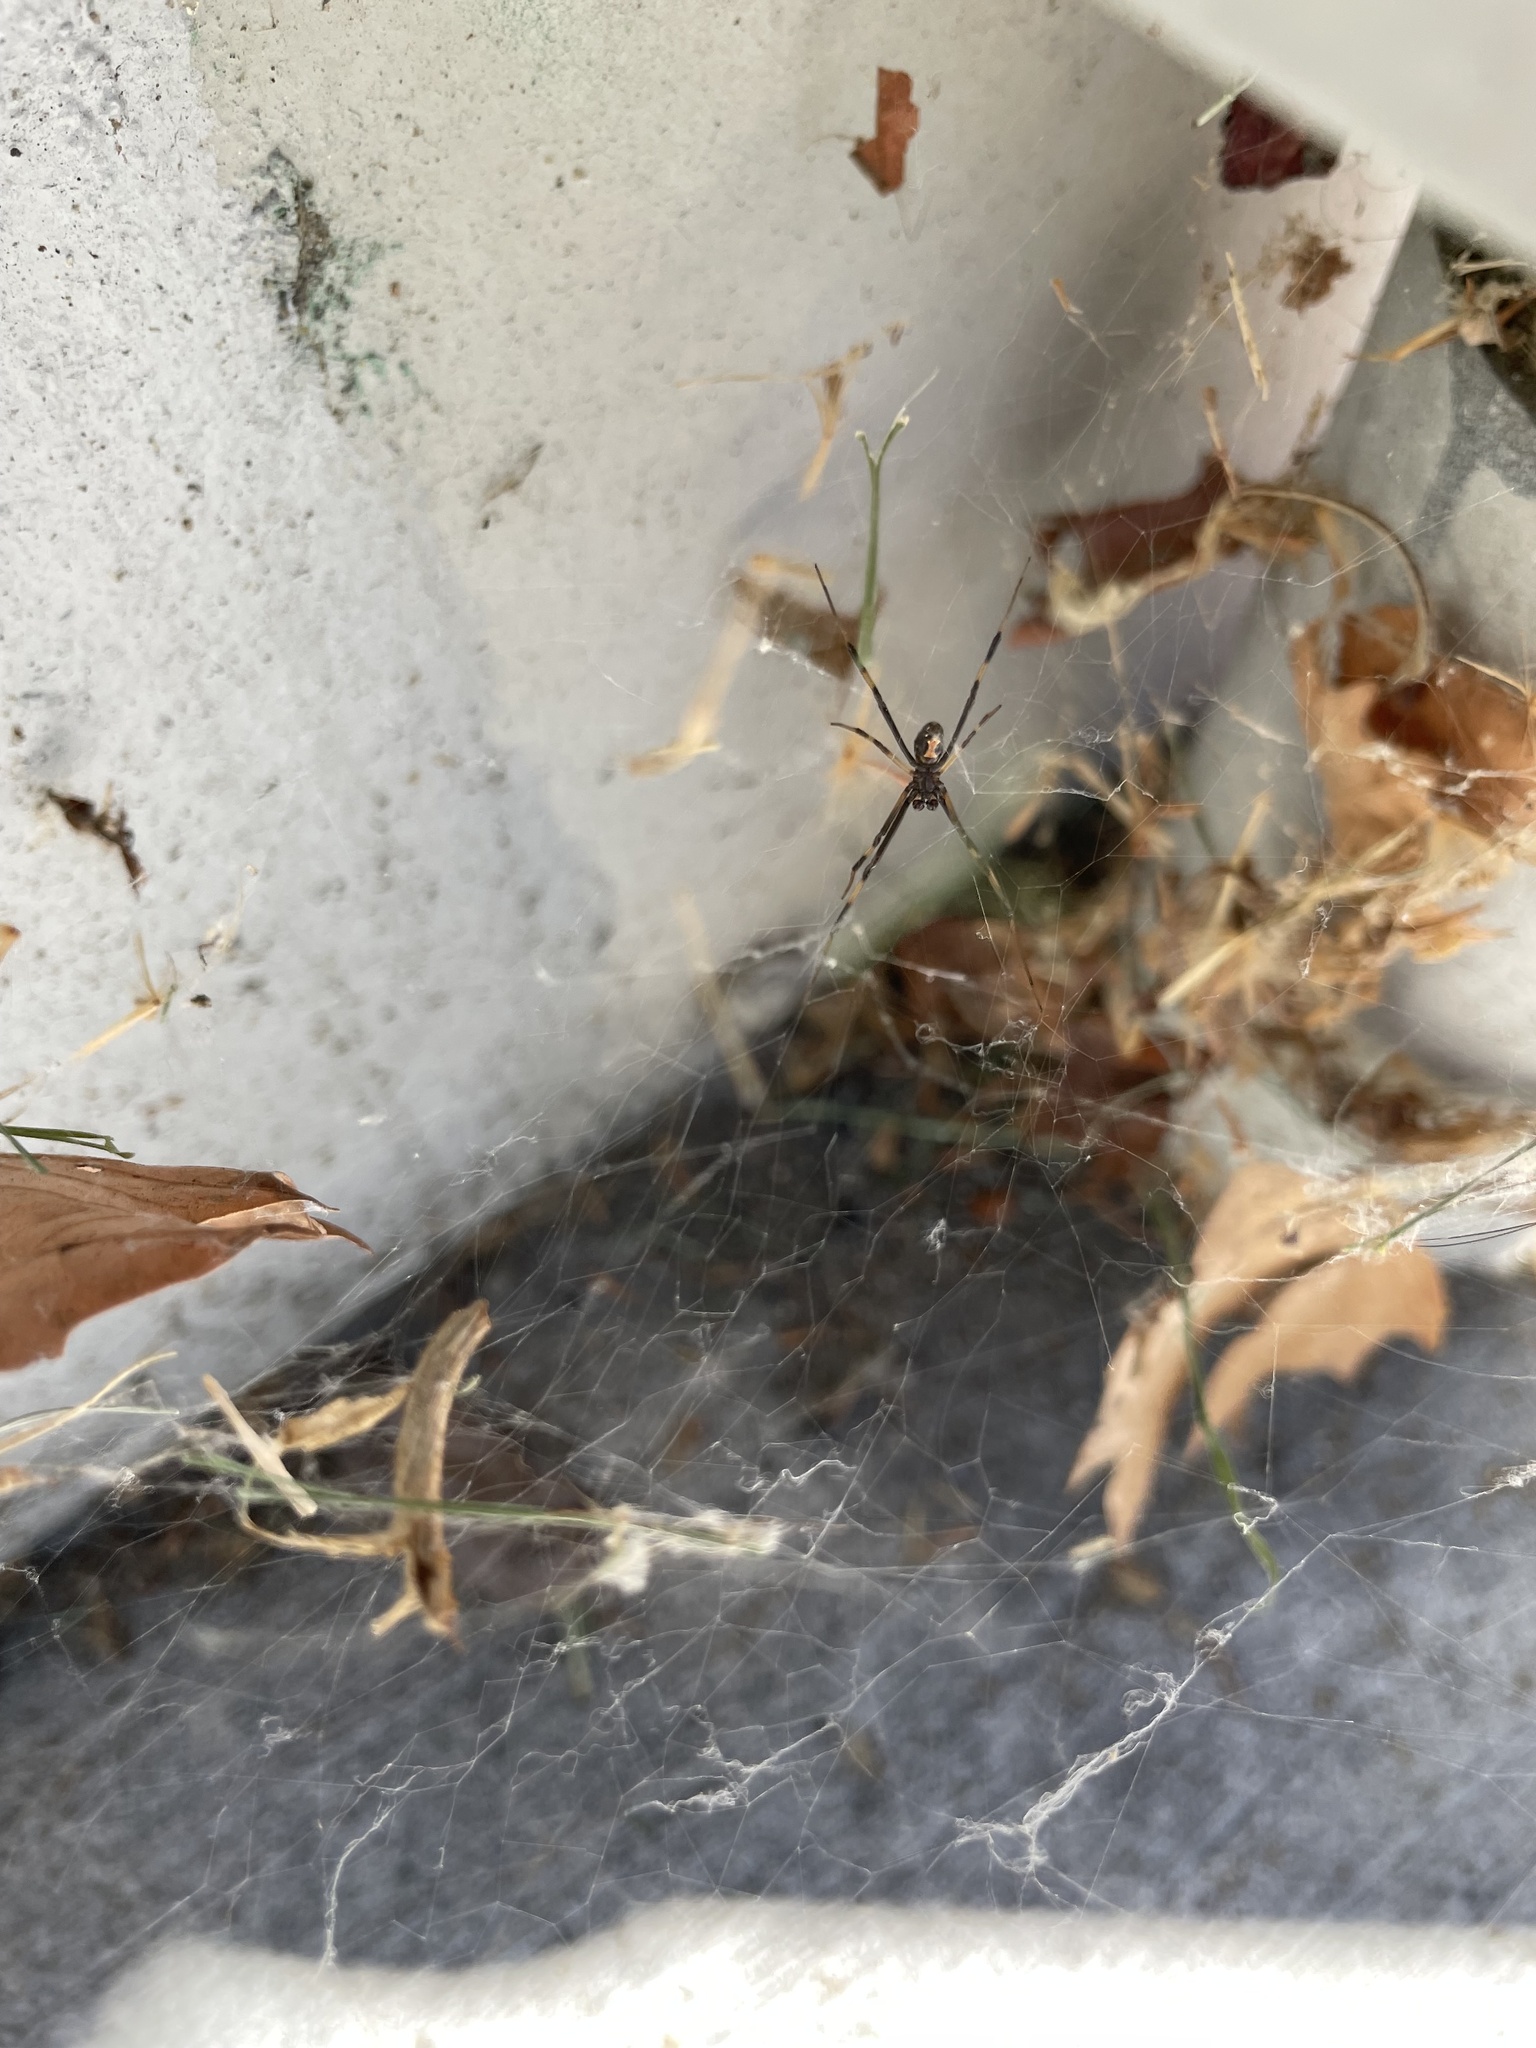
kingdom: Animalia
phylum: Arthropoda
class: Arachnida
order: Araneae
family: Theridiidae
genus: Latrodectus
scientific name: Latrodectus hesperus
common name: Western black widow
